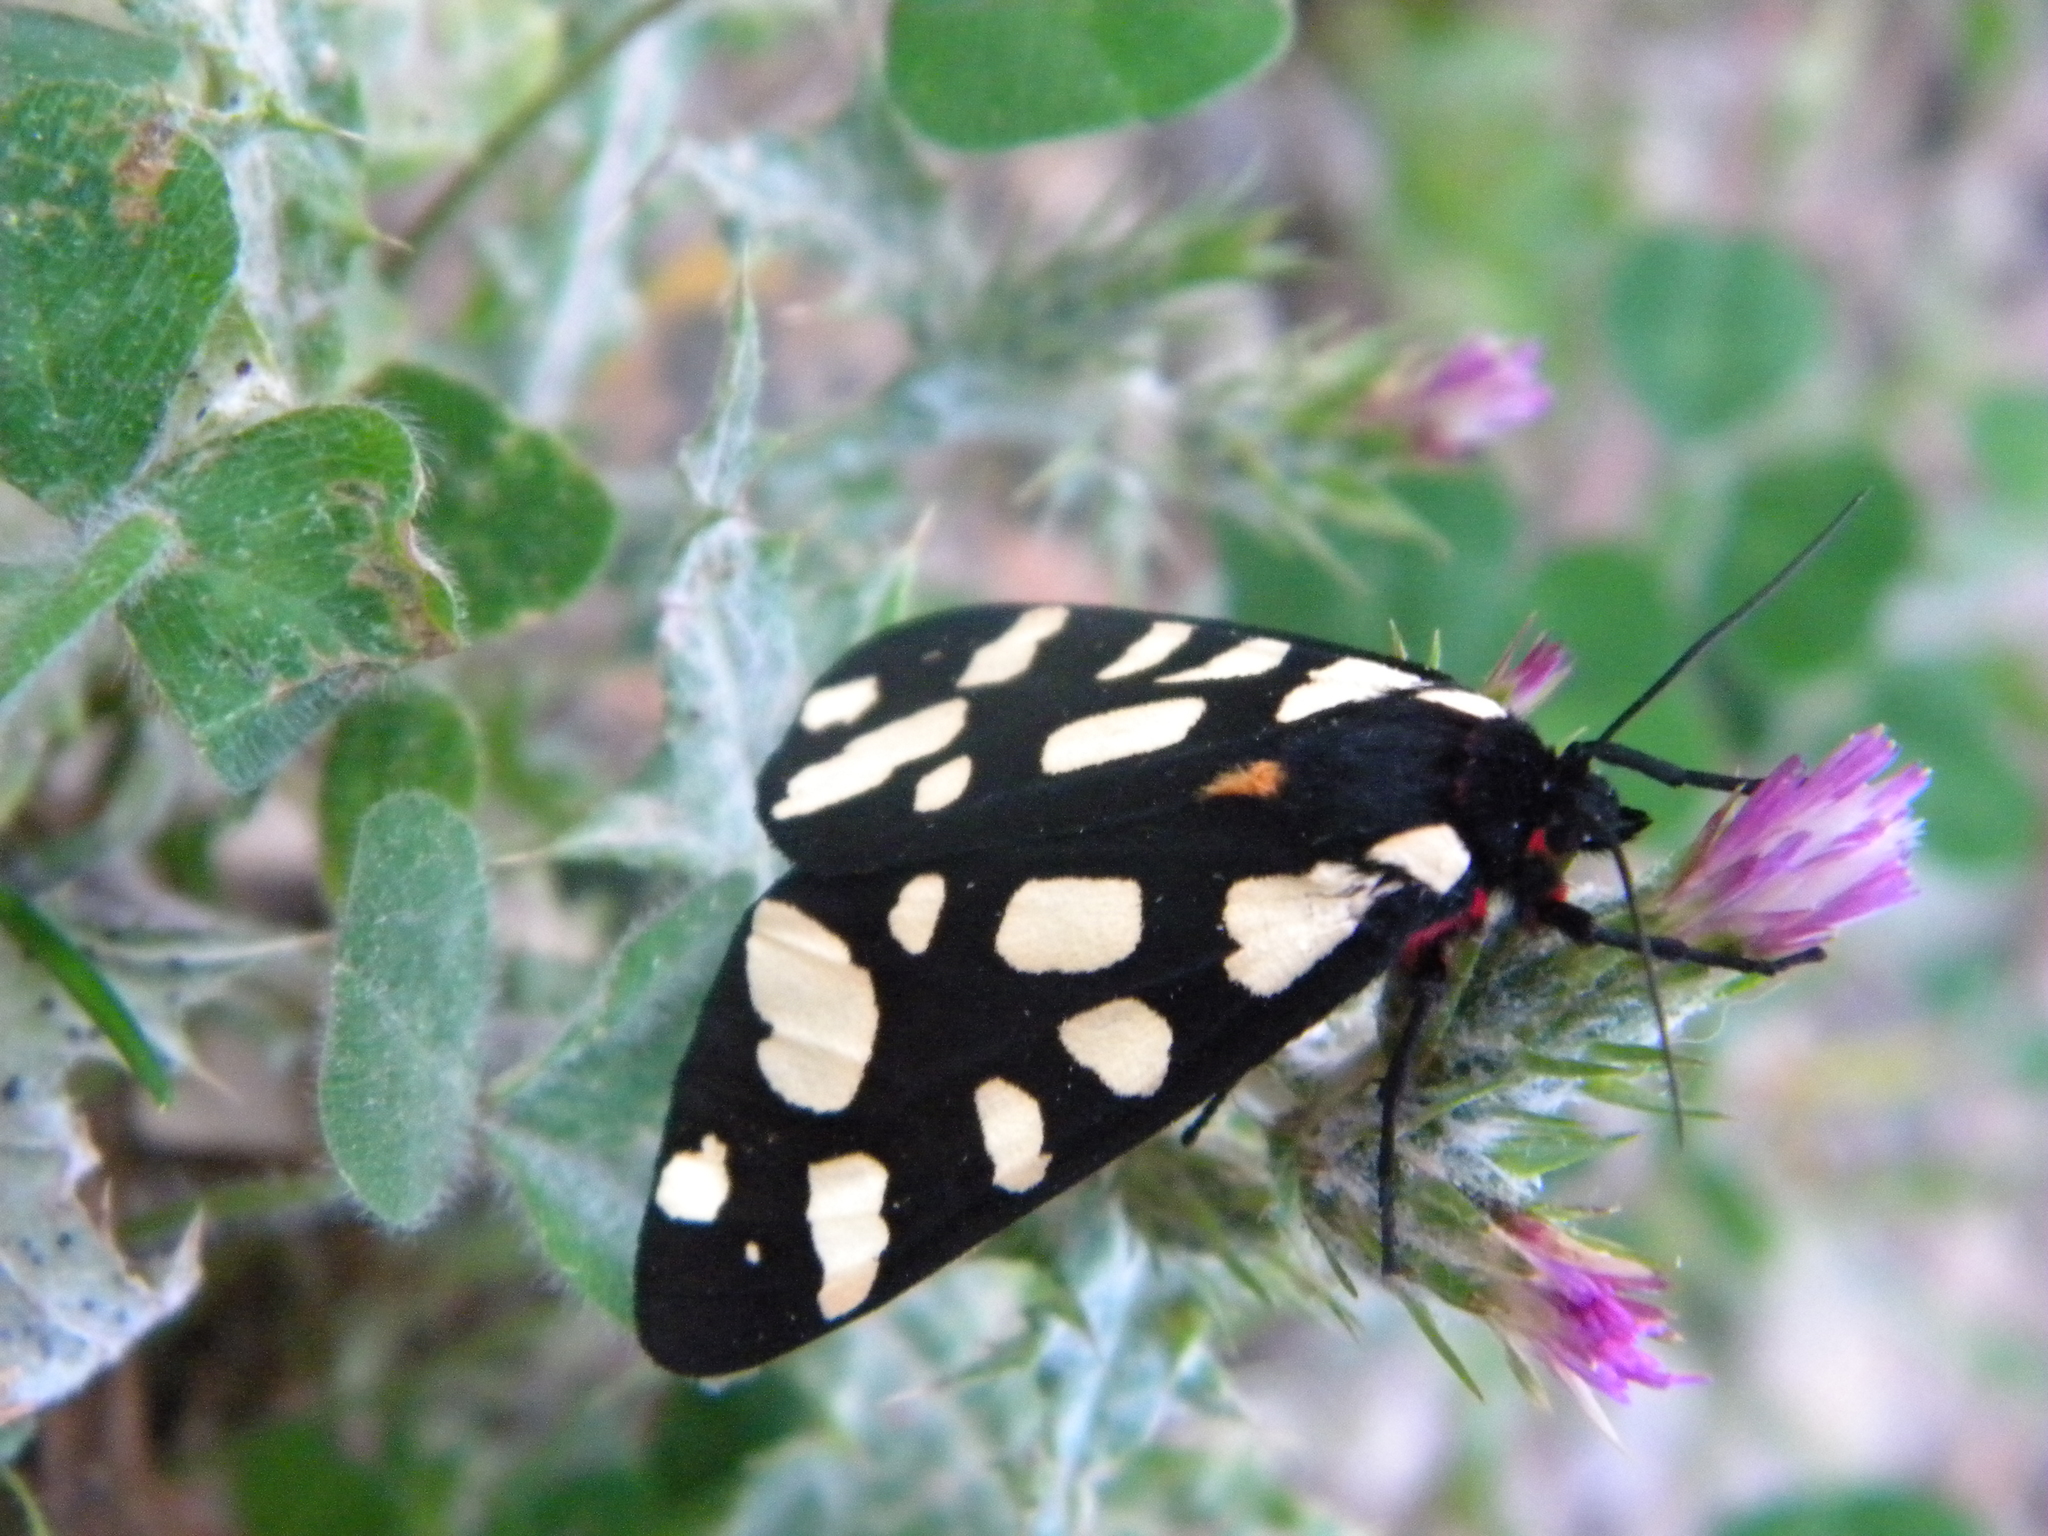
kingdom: Animalia
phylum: Arthropoda
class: Insecta
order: Lepidoptera
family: Erebidae
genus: Epicallia
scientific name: Epicallia villica
